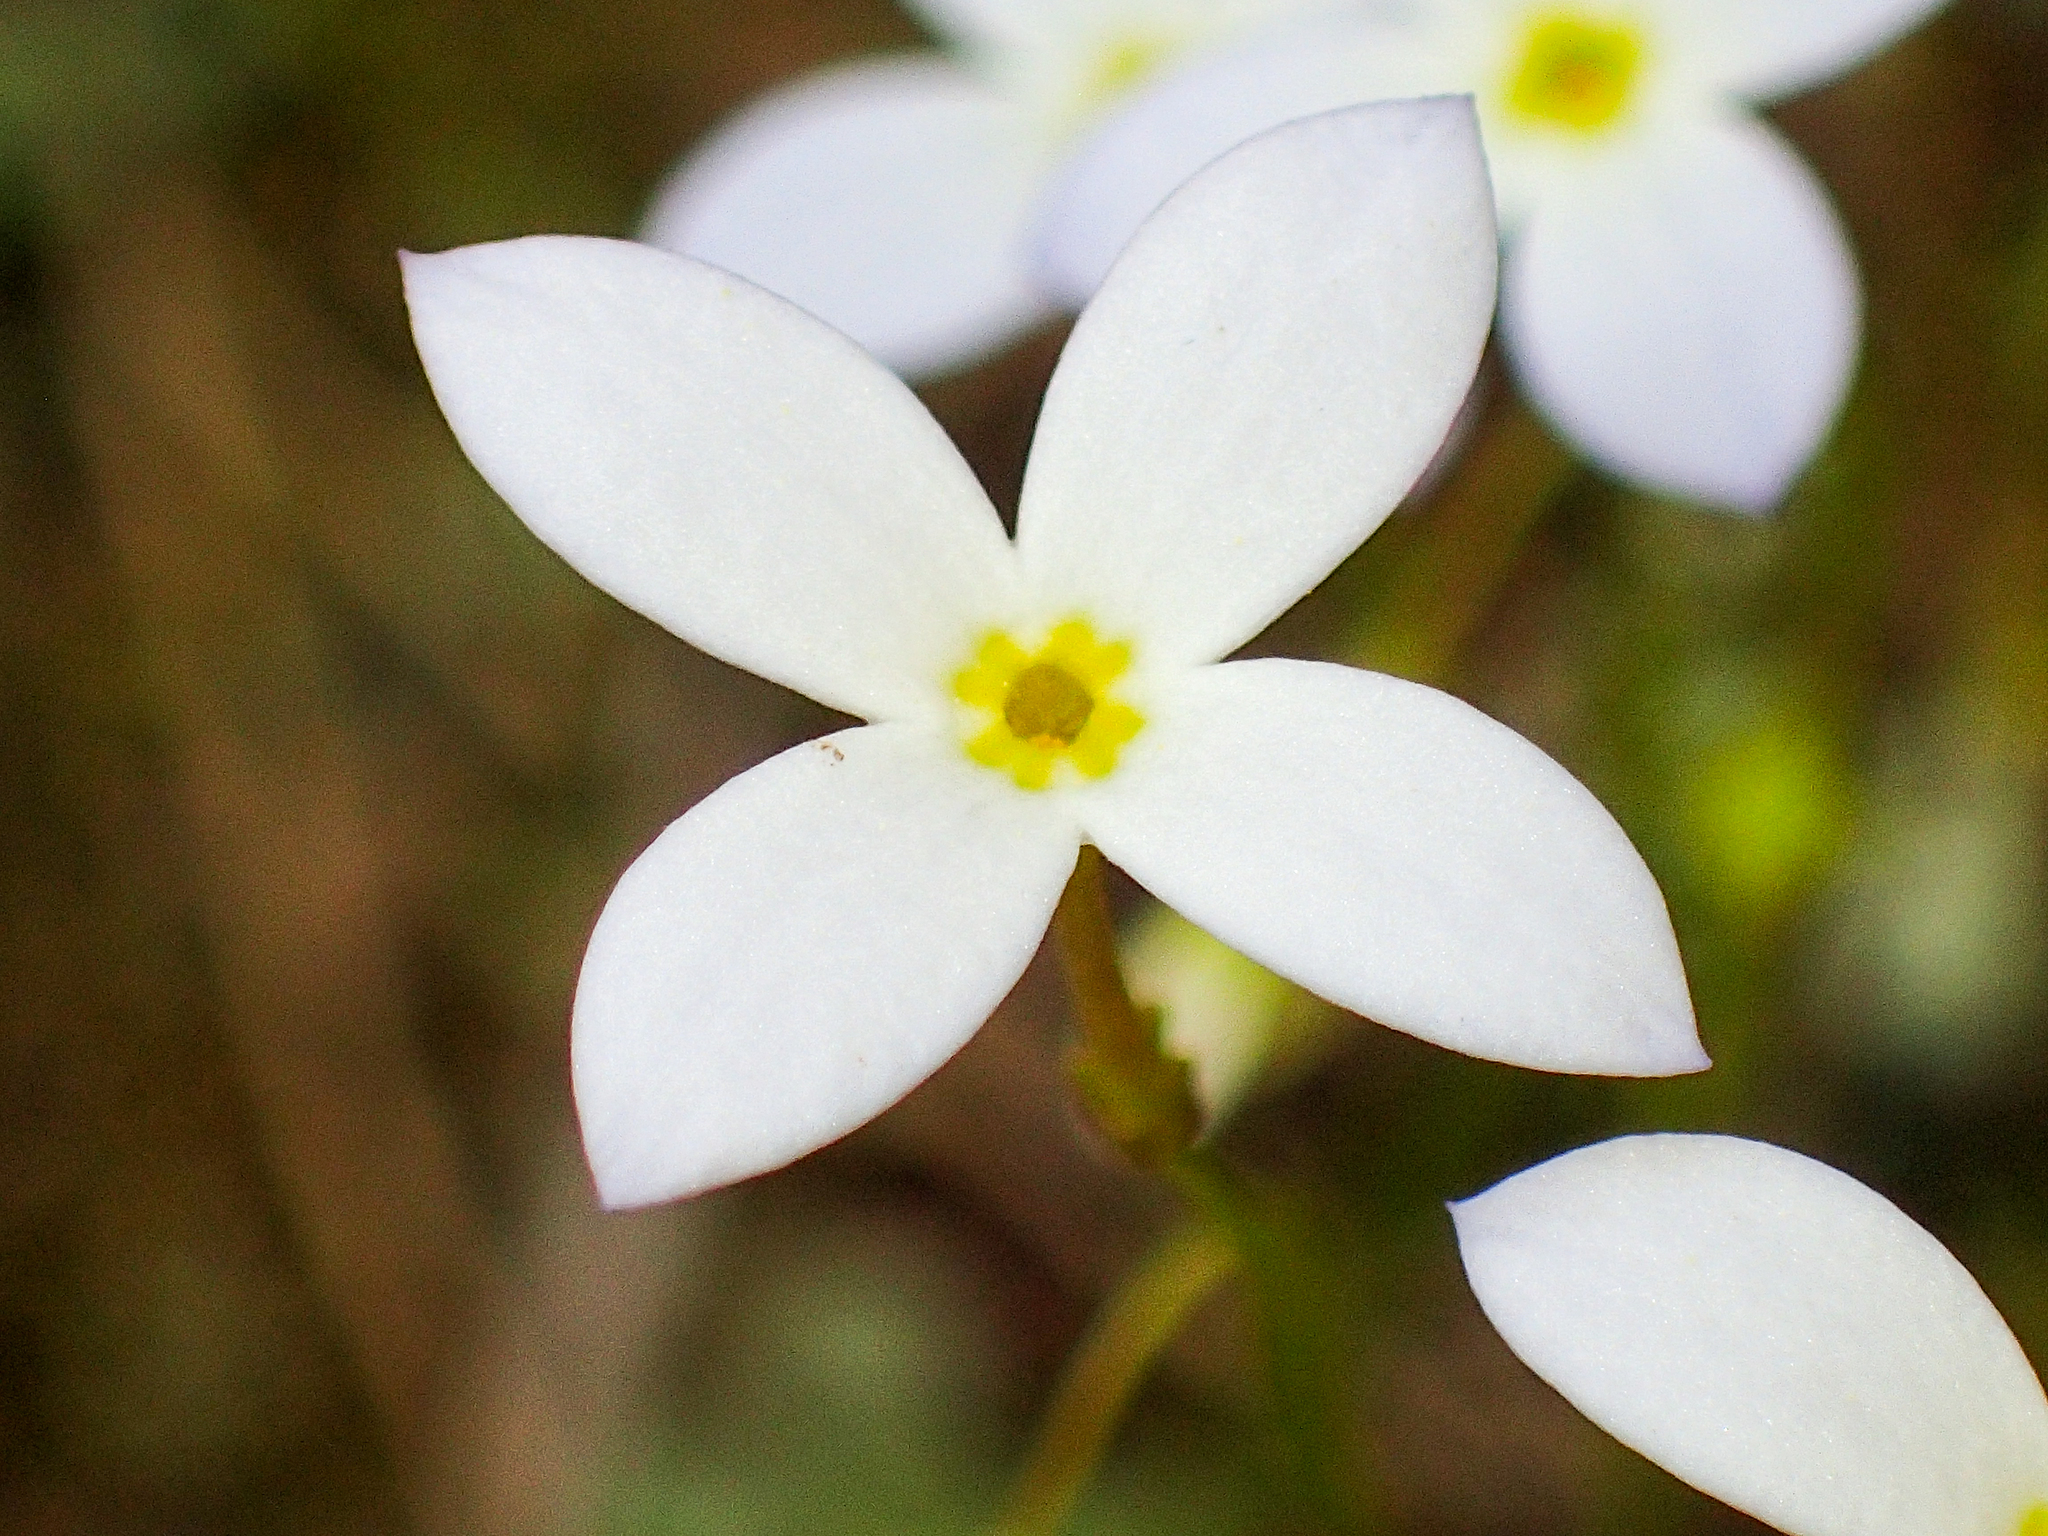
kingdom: Plantae
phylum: Tracheophyta
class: Magnoliopsida
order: Gentianales
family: Rubiaceae
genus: Houstonia
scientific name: Houstonia caerulea
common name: Bluets
